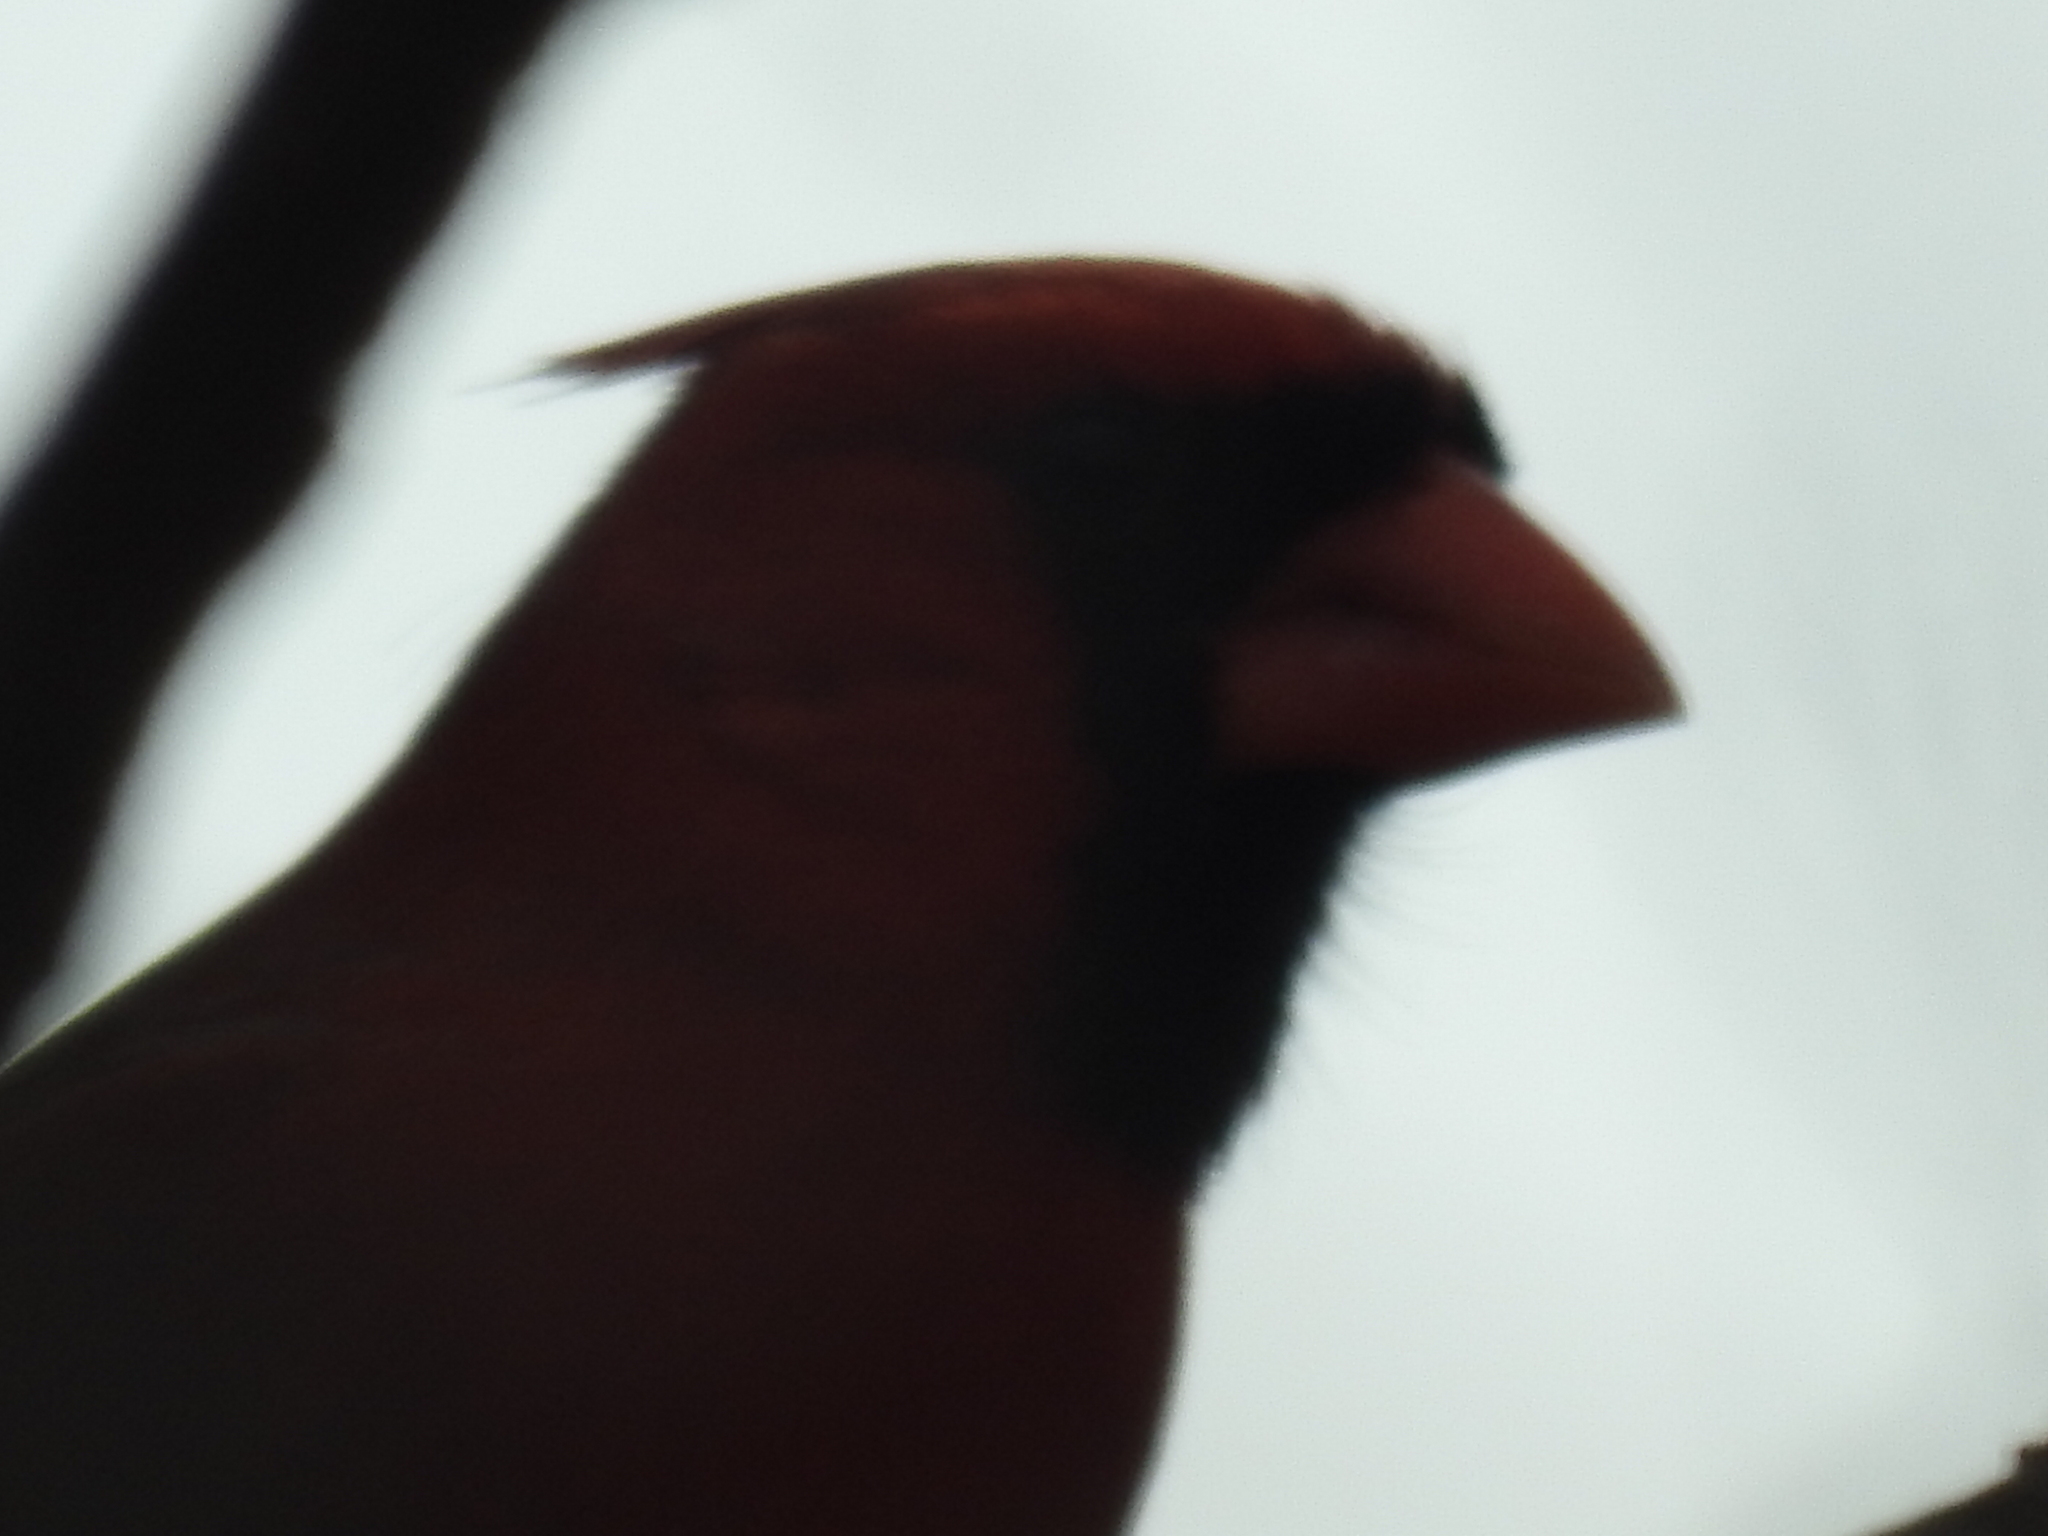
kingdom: Animalia
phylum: Chordata
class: Aves
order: Passeriformes
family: Cardinalidae
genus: Cardinalis
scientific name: Cardinalis cardinalis
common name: Northern cardinal
